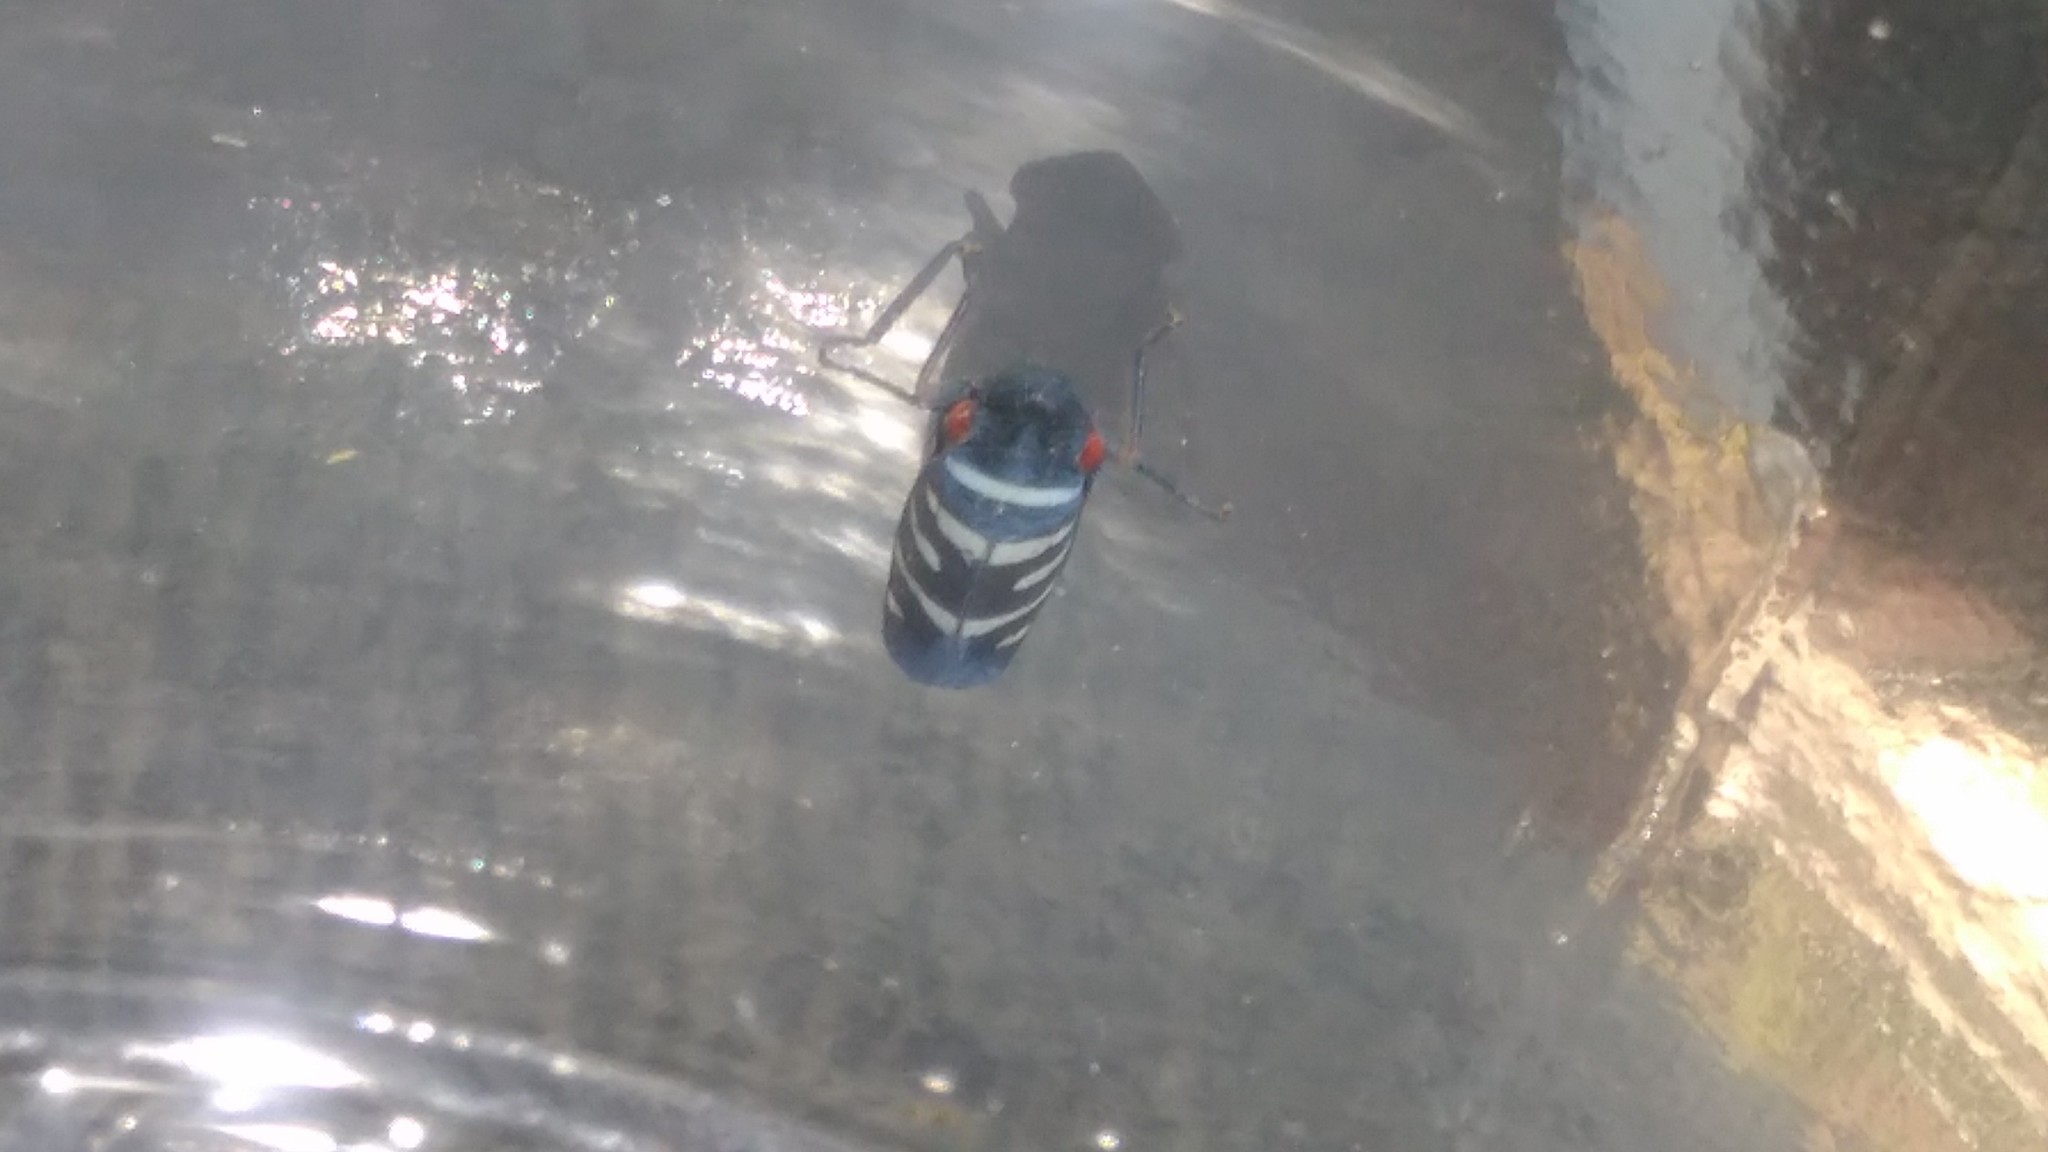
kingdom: Animalia
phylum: Arthropoda
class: Insecta
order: Hemiptera
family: Cicadellidae
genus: Balacha
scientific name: Balacha melanocephala
